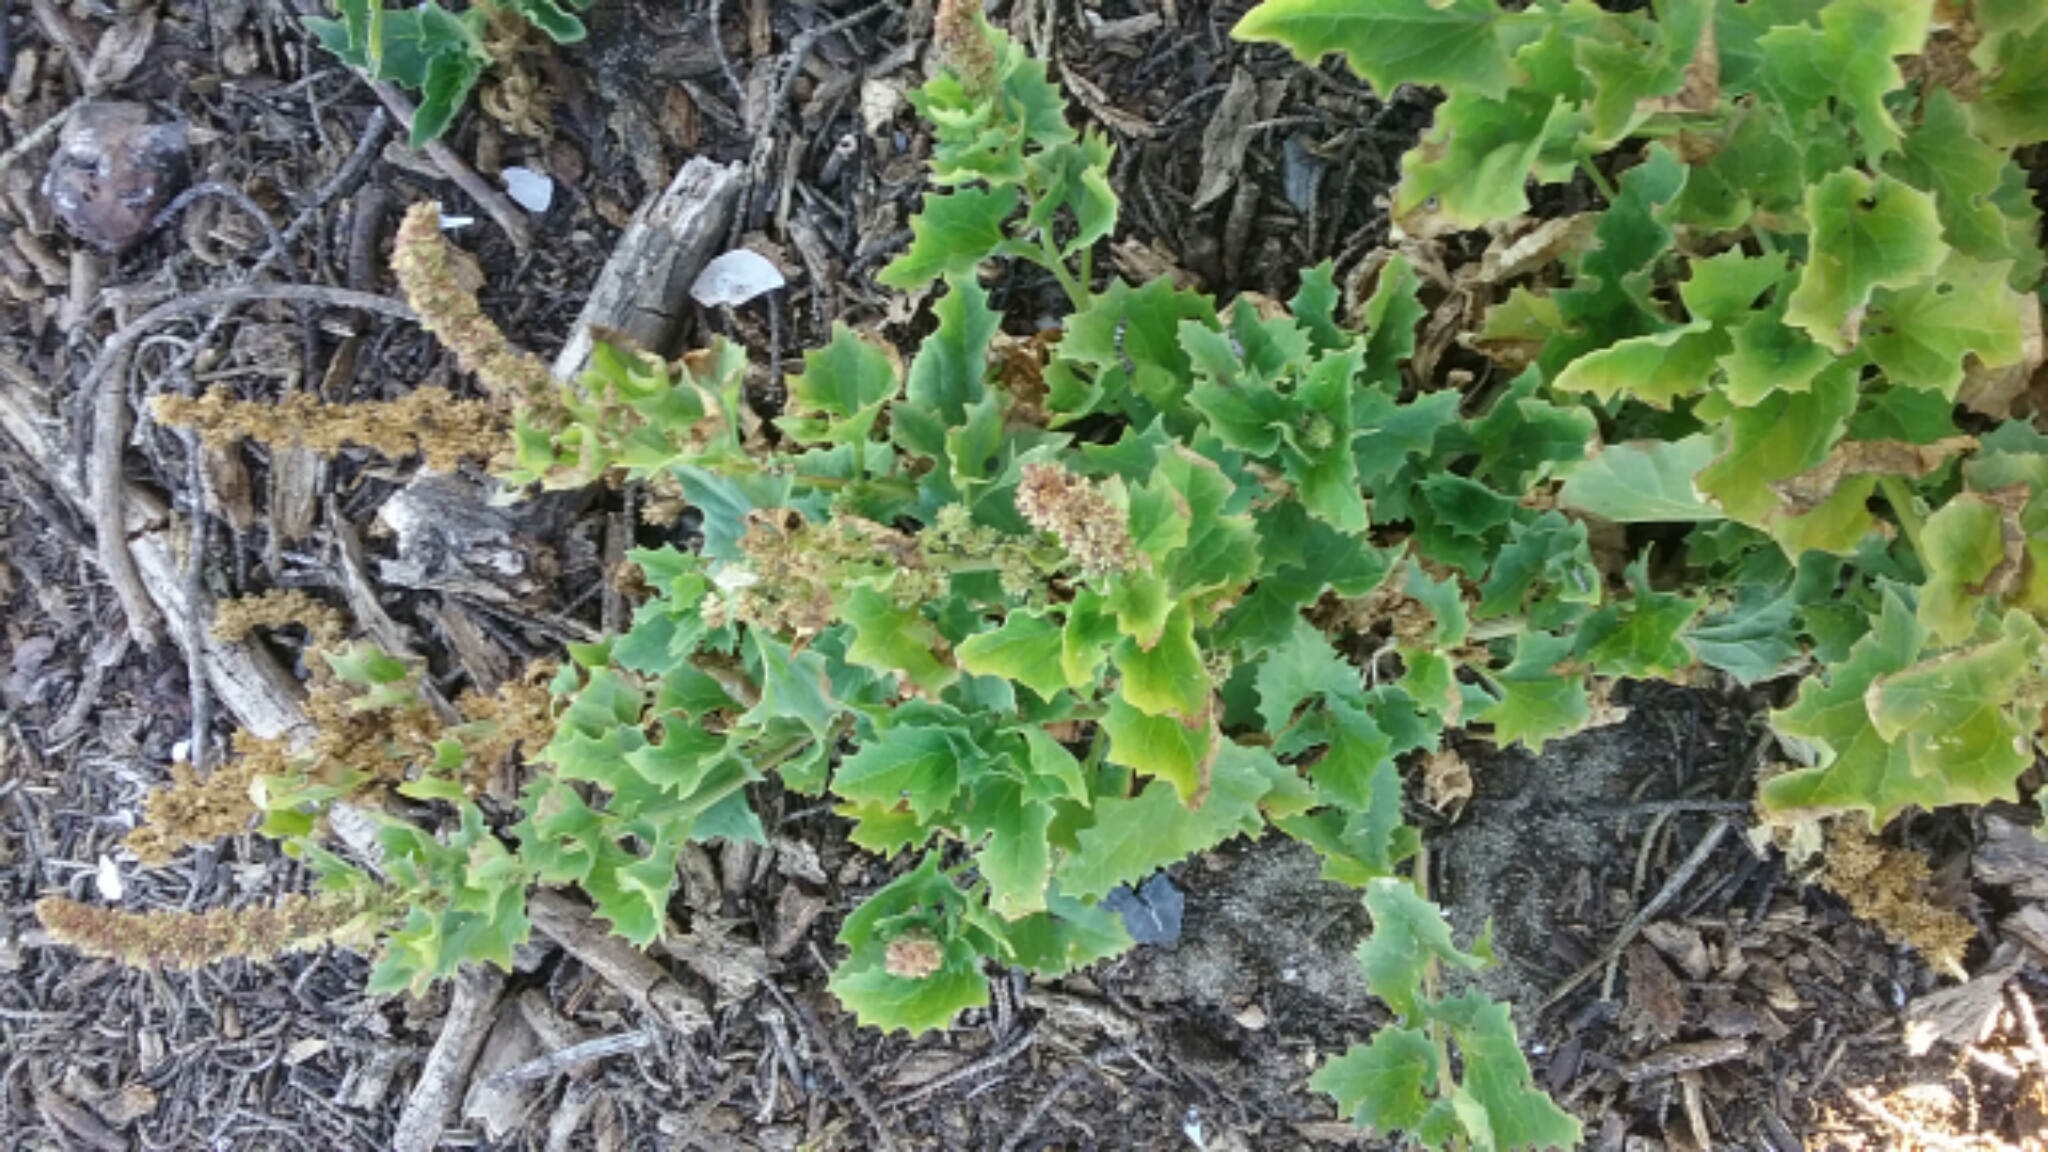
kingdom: Plantae
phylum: Tracheophyta
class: Magnoliopsida
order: Caryophyllales
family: Amaranthaceae
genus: Blitum
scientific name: Blitum californicum
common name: California goosefoot
